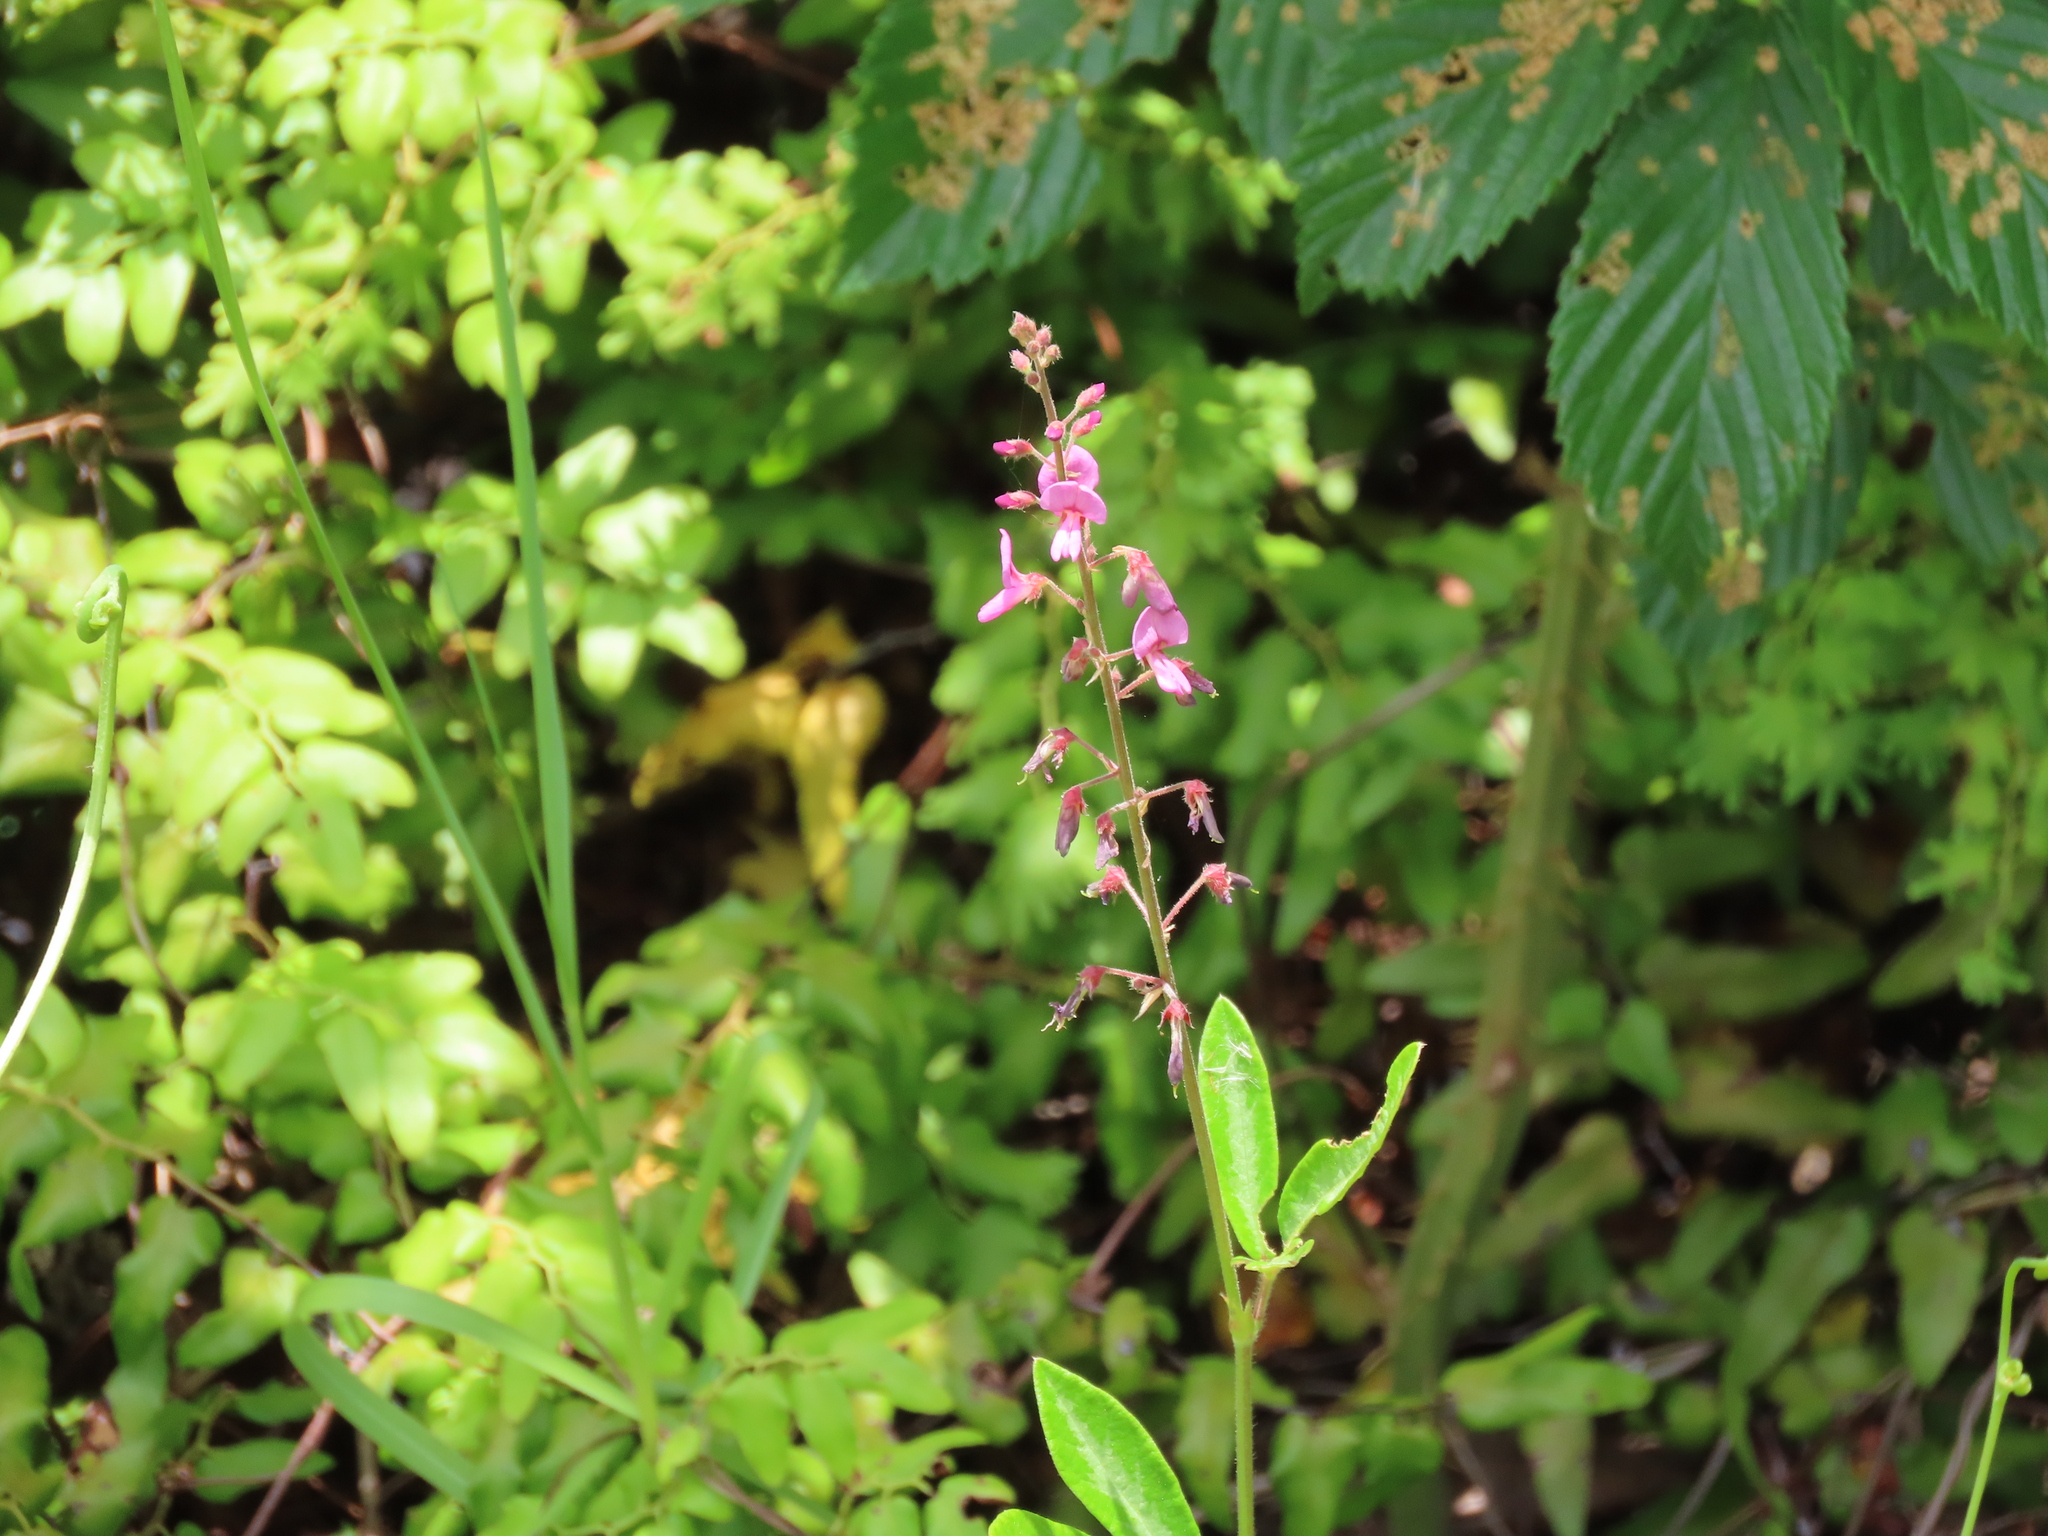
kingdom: Plantae
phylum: Tracheophyta
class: Magnoliopsida
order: Fabales
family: Fabaceae
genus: Desmodium
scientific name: Desmodium incanum
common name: Tickclover
